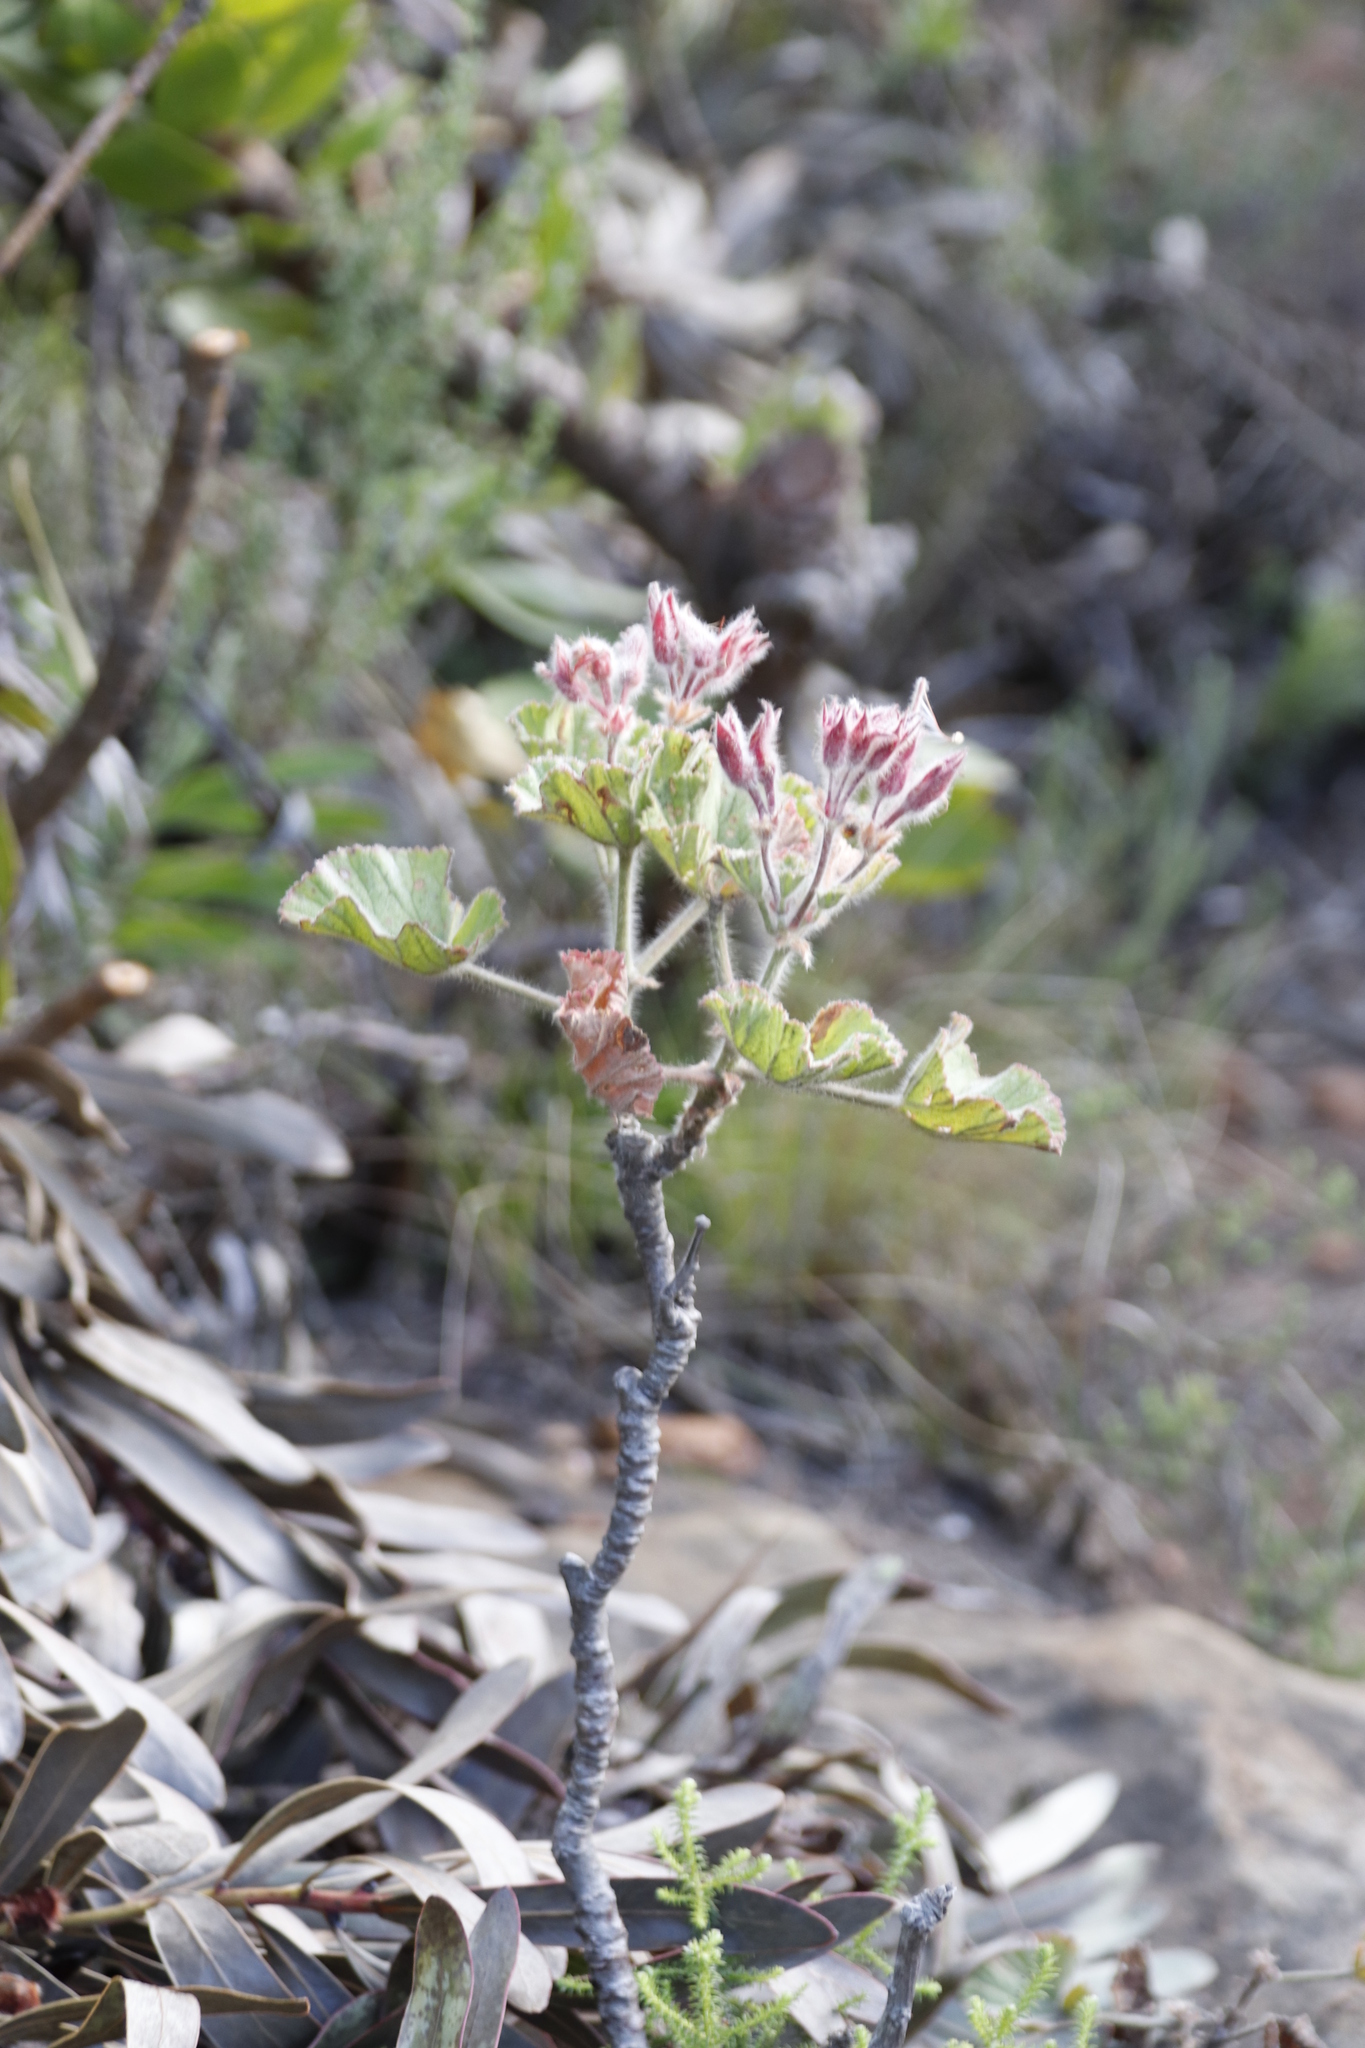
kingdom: Plantae
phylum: Tracheophyta
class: Magnoliopsida
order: Geraniales
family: Geraniaceae
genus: Pelargonium
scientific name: Pelargonium cucullatum
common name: Tree pelargonium
